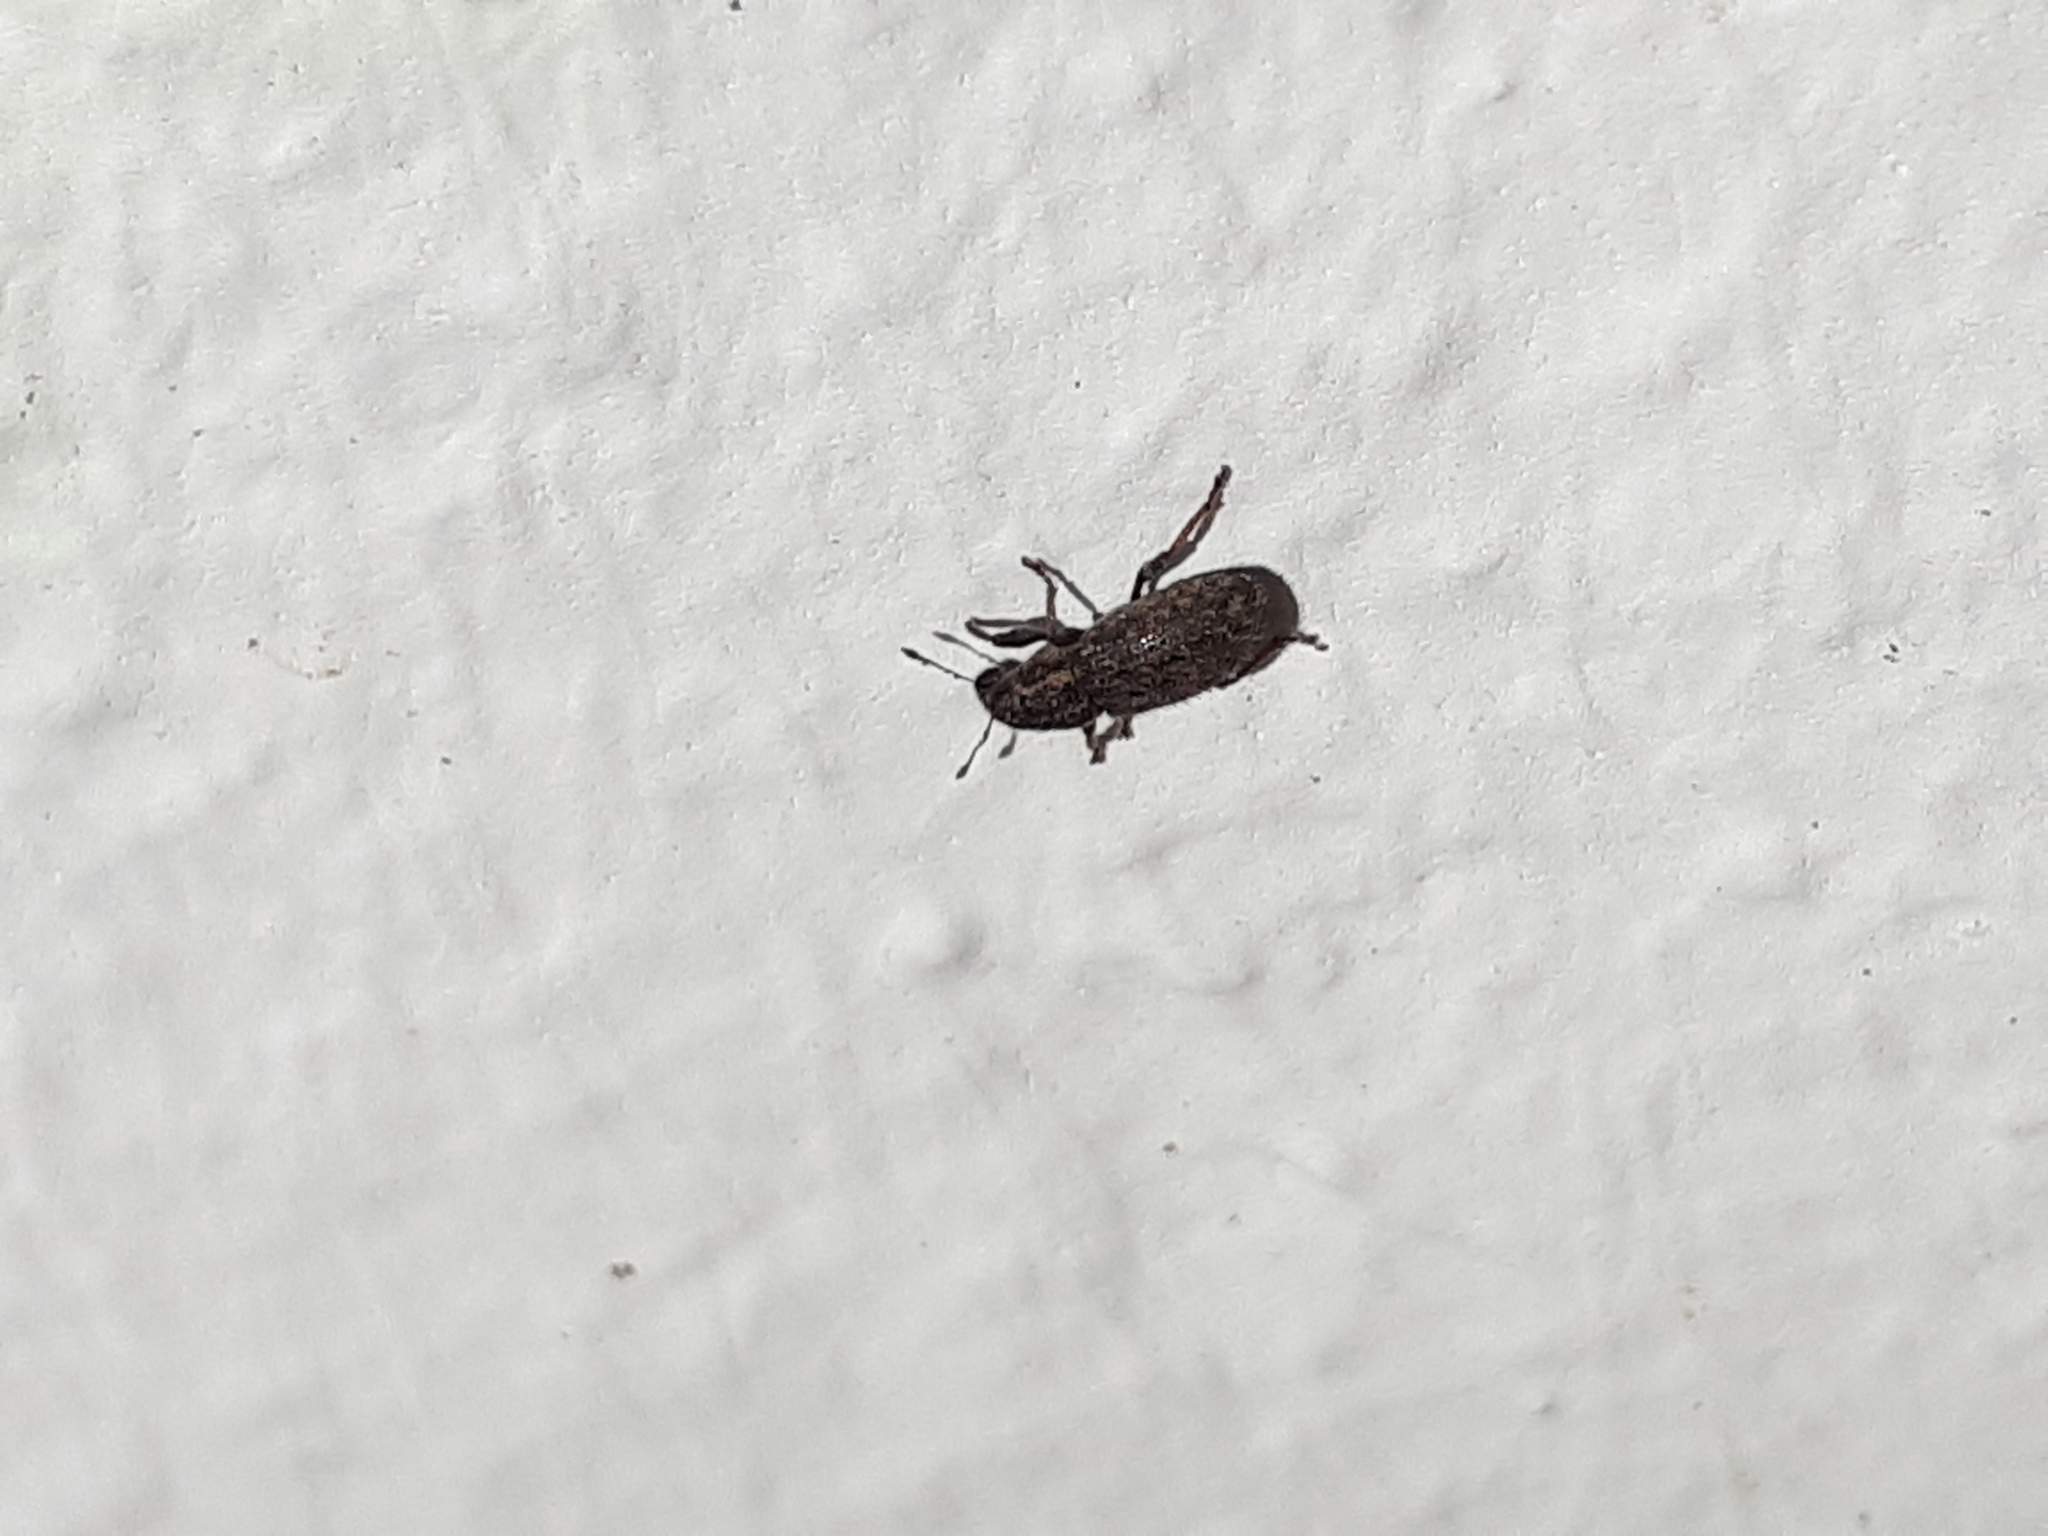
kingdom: Animalia
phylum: Arthropoda
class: Insecta
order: Coleoptera
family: Curculionidae
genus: Sitona
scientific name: Sitona hispidulus
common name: Clover weevil
